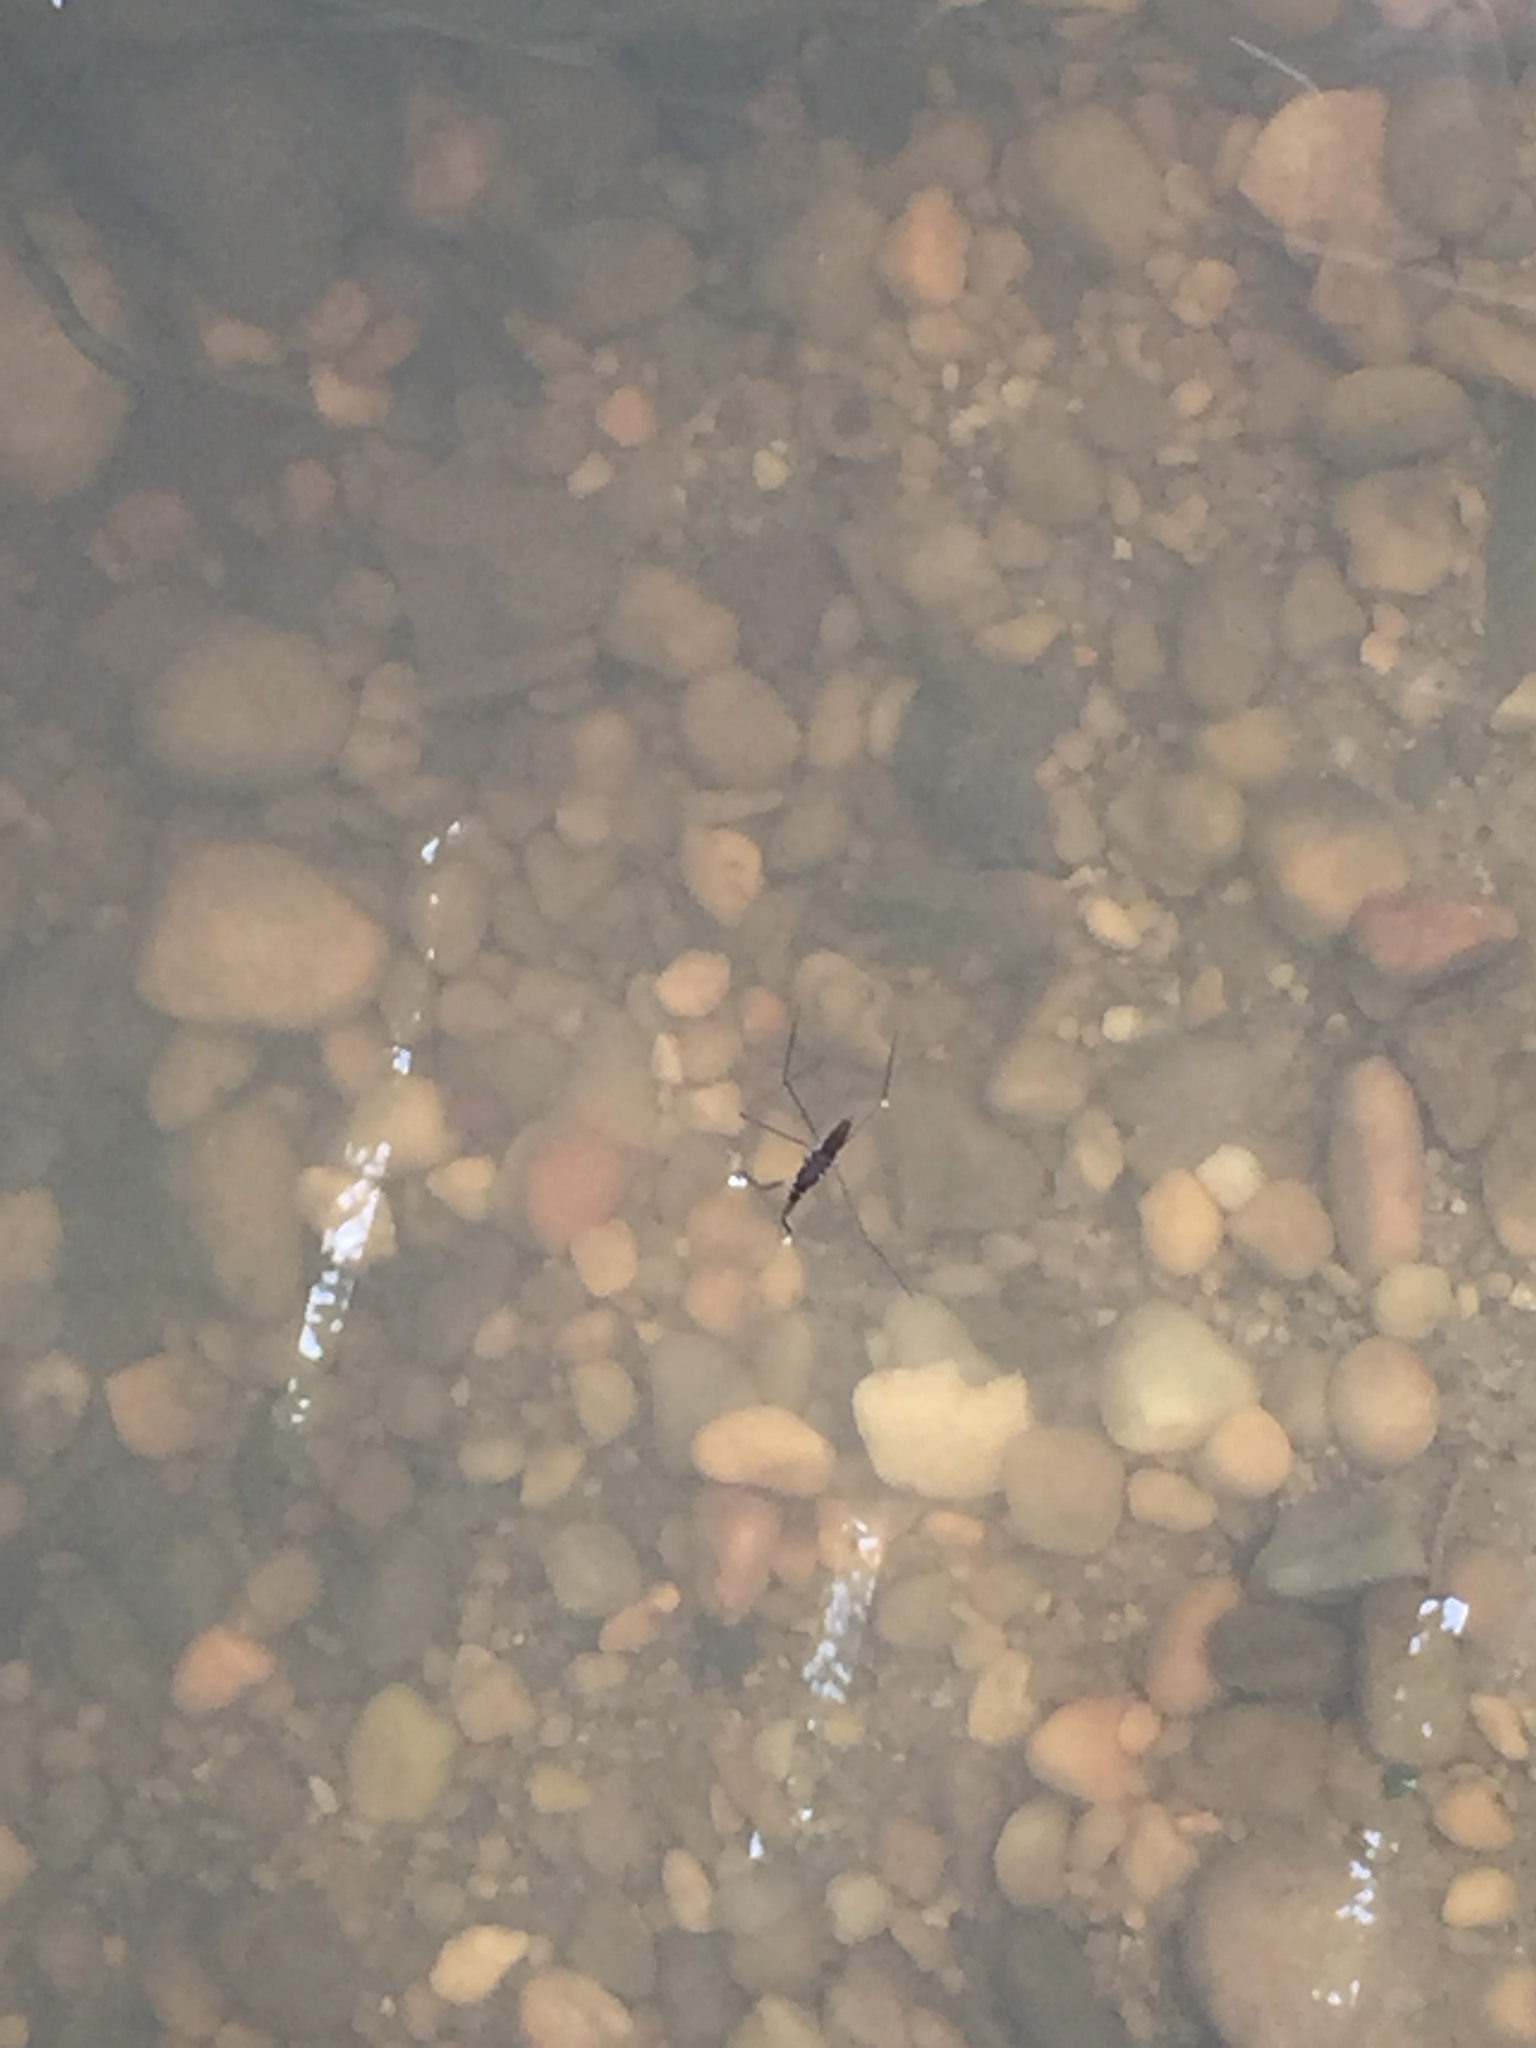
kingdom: Animalia
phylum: Arthropoda
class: Insecta
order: Hemiptera
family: Gerridae
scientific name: Gerridae
